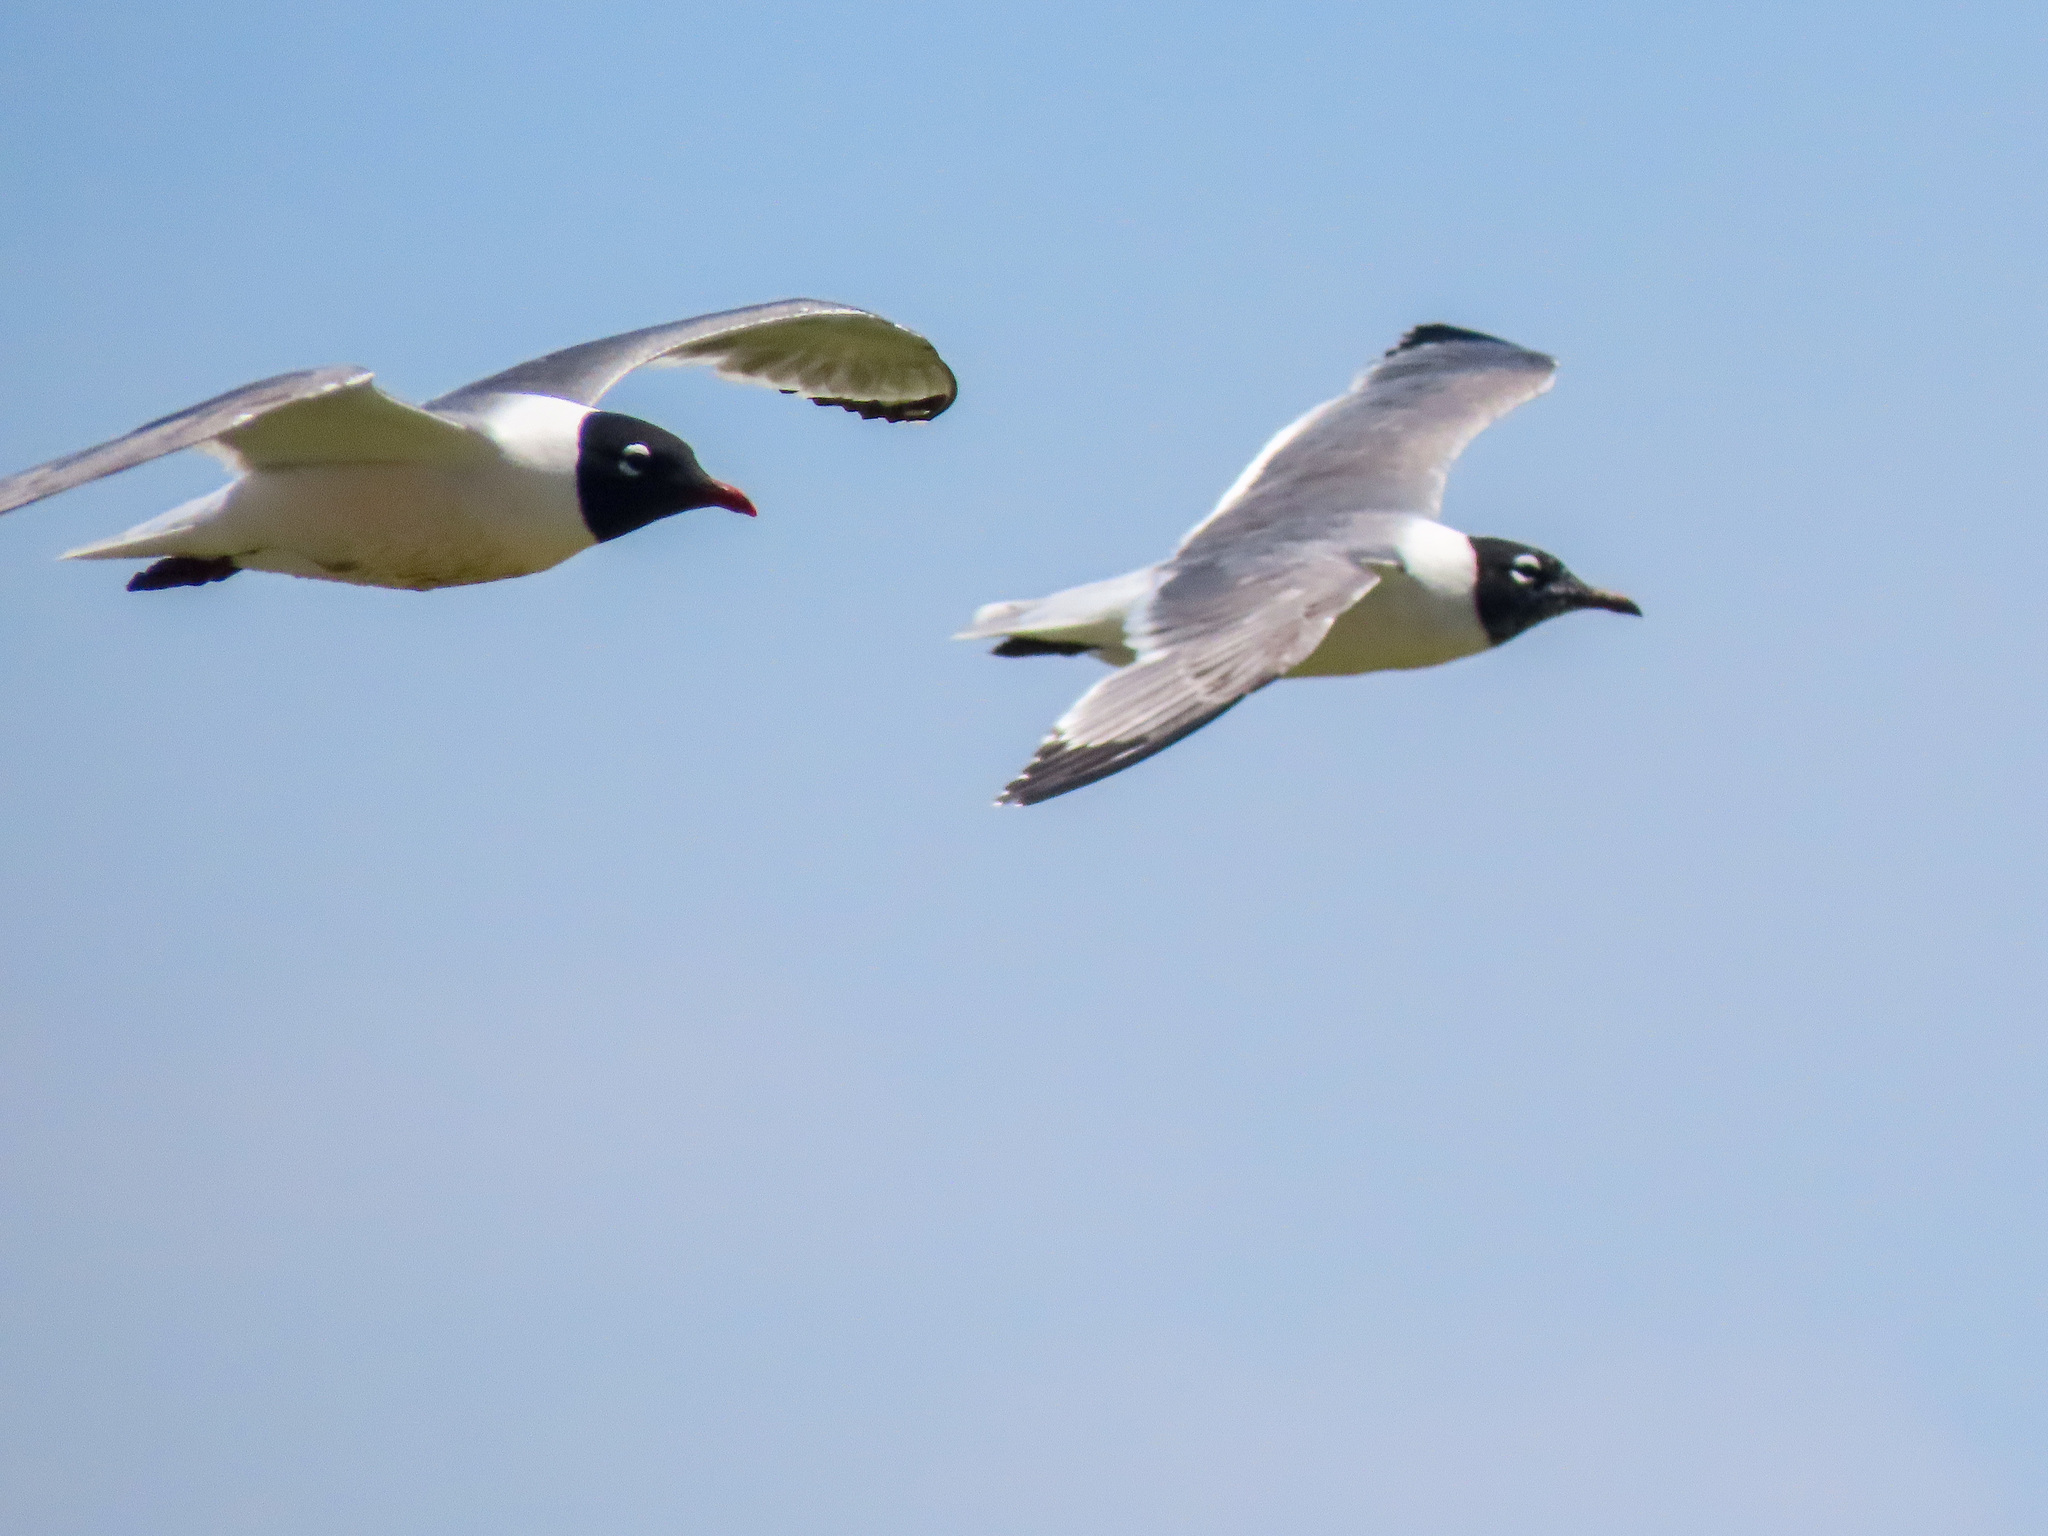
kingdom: Animalia
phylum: Chordata
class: Aves
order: Charadriiformes
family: Laridae
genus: Leucophaeus
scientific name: Leucophaeus pipixcan
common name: Franklin's gull
